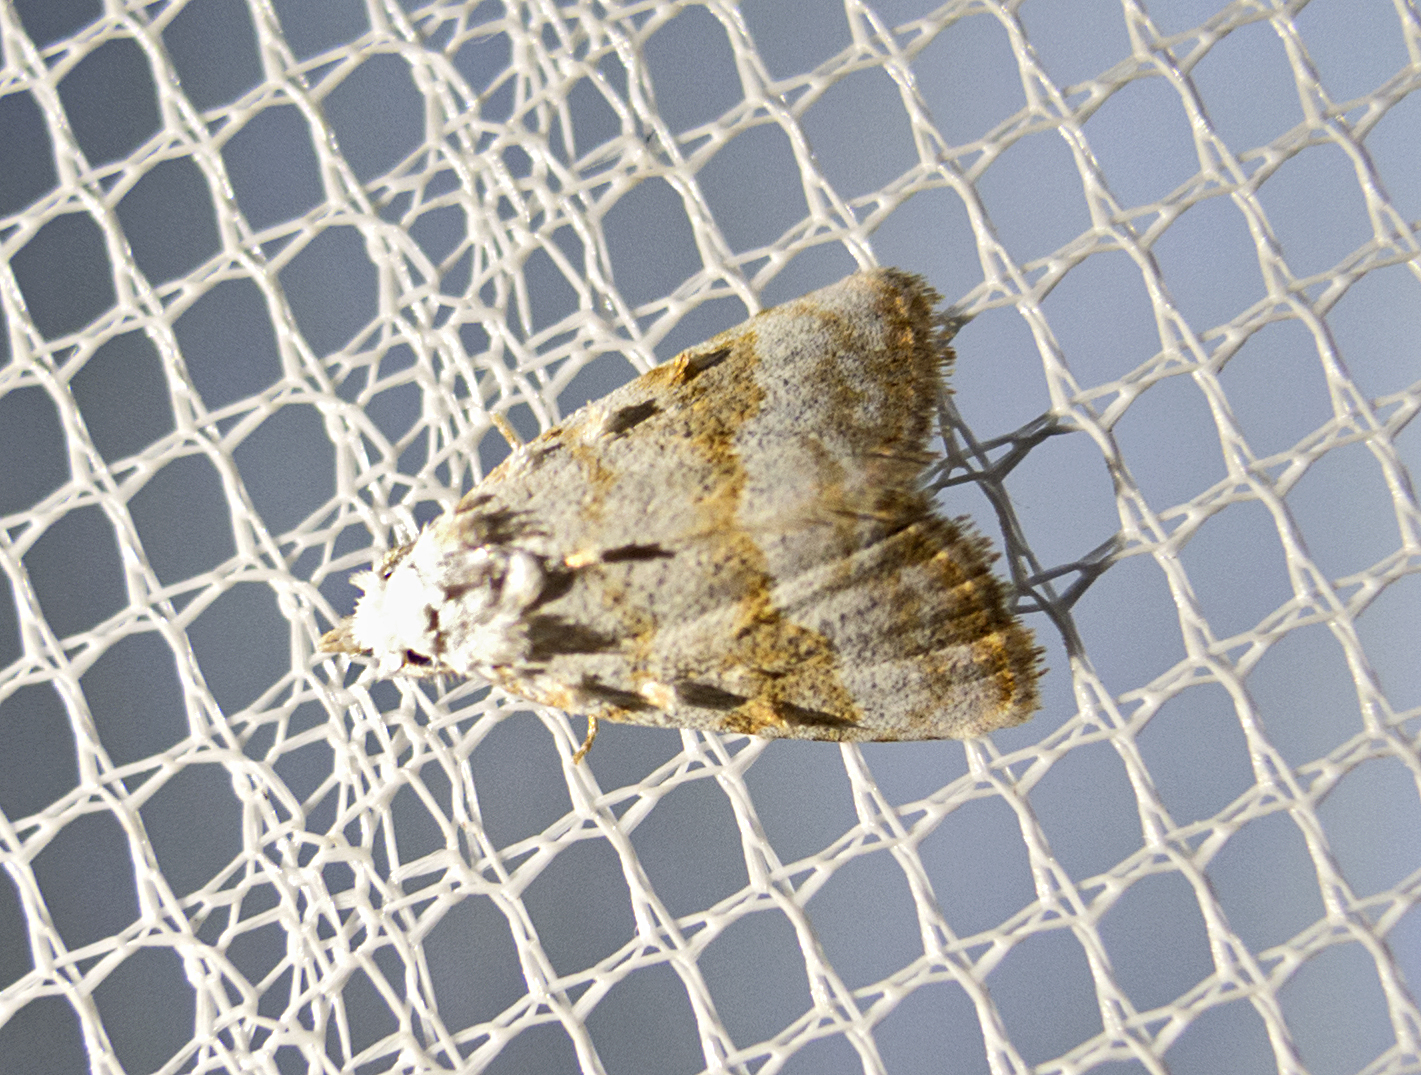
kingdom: Animalia
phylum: Arthropoda
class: Insecta
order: Lepidoptera
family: Nolidae
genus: Nola
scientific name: Nola aerugula
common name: Scarce black arches
